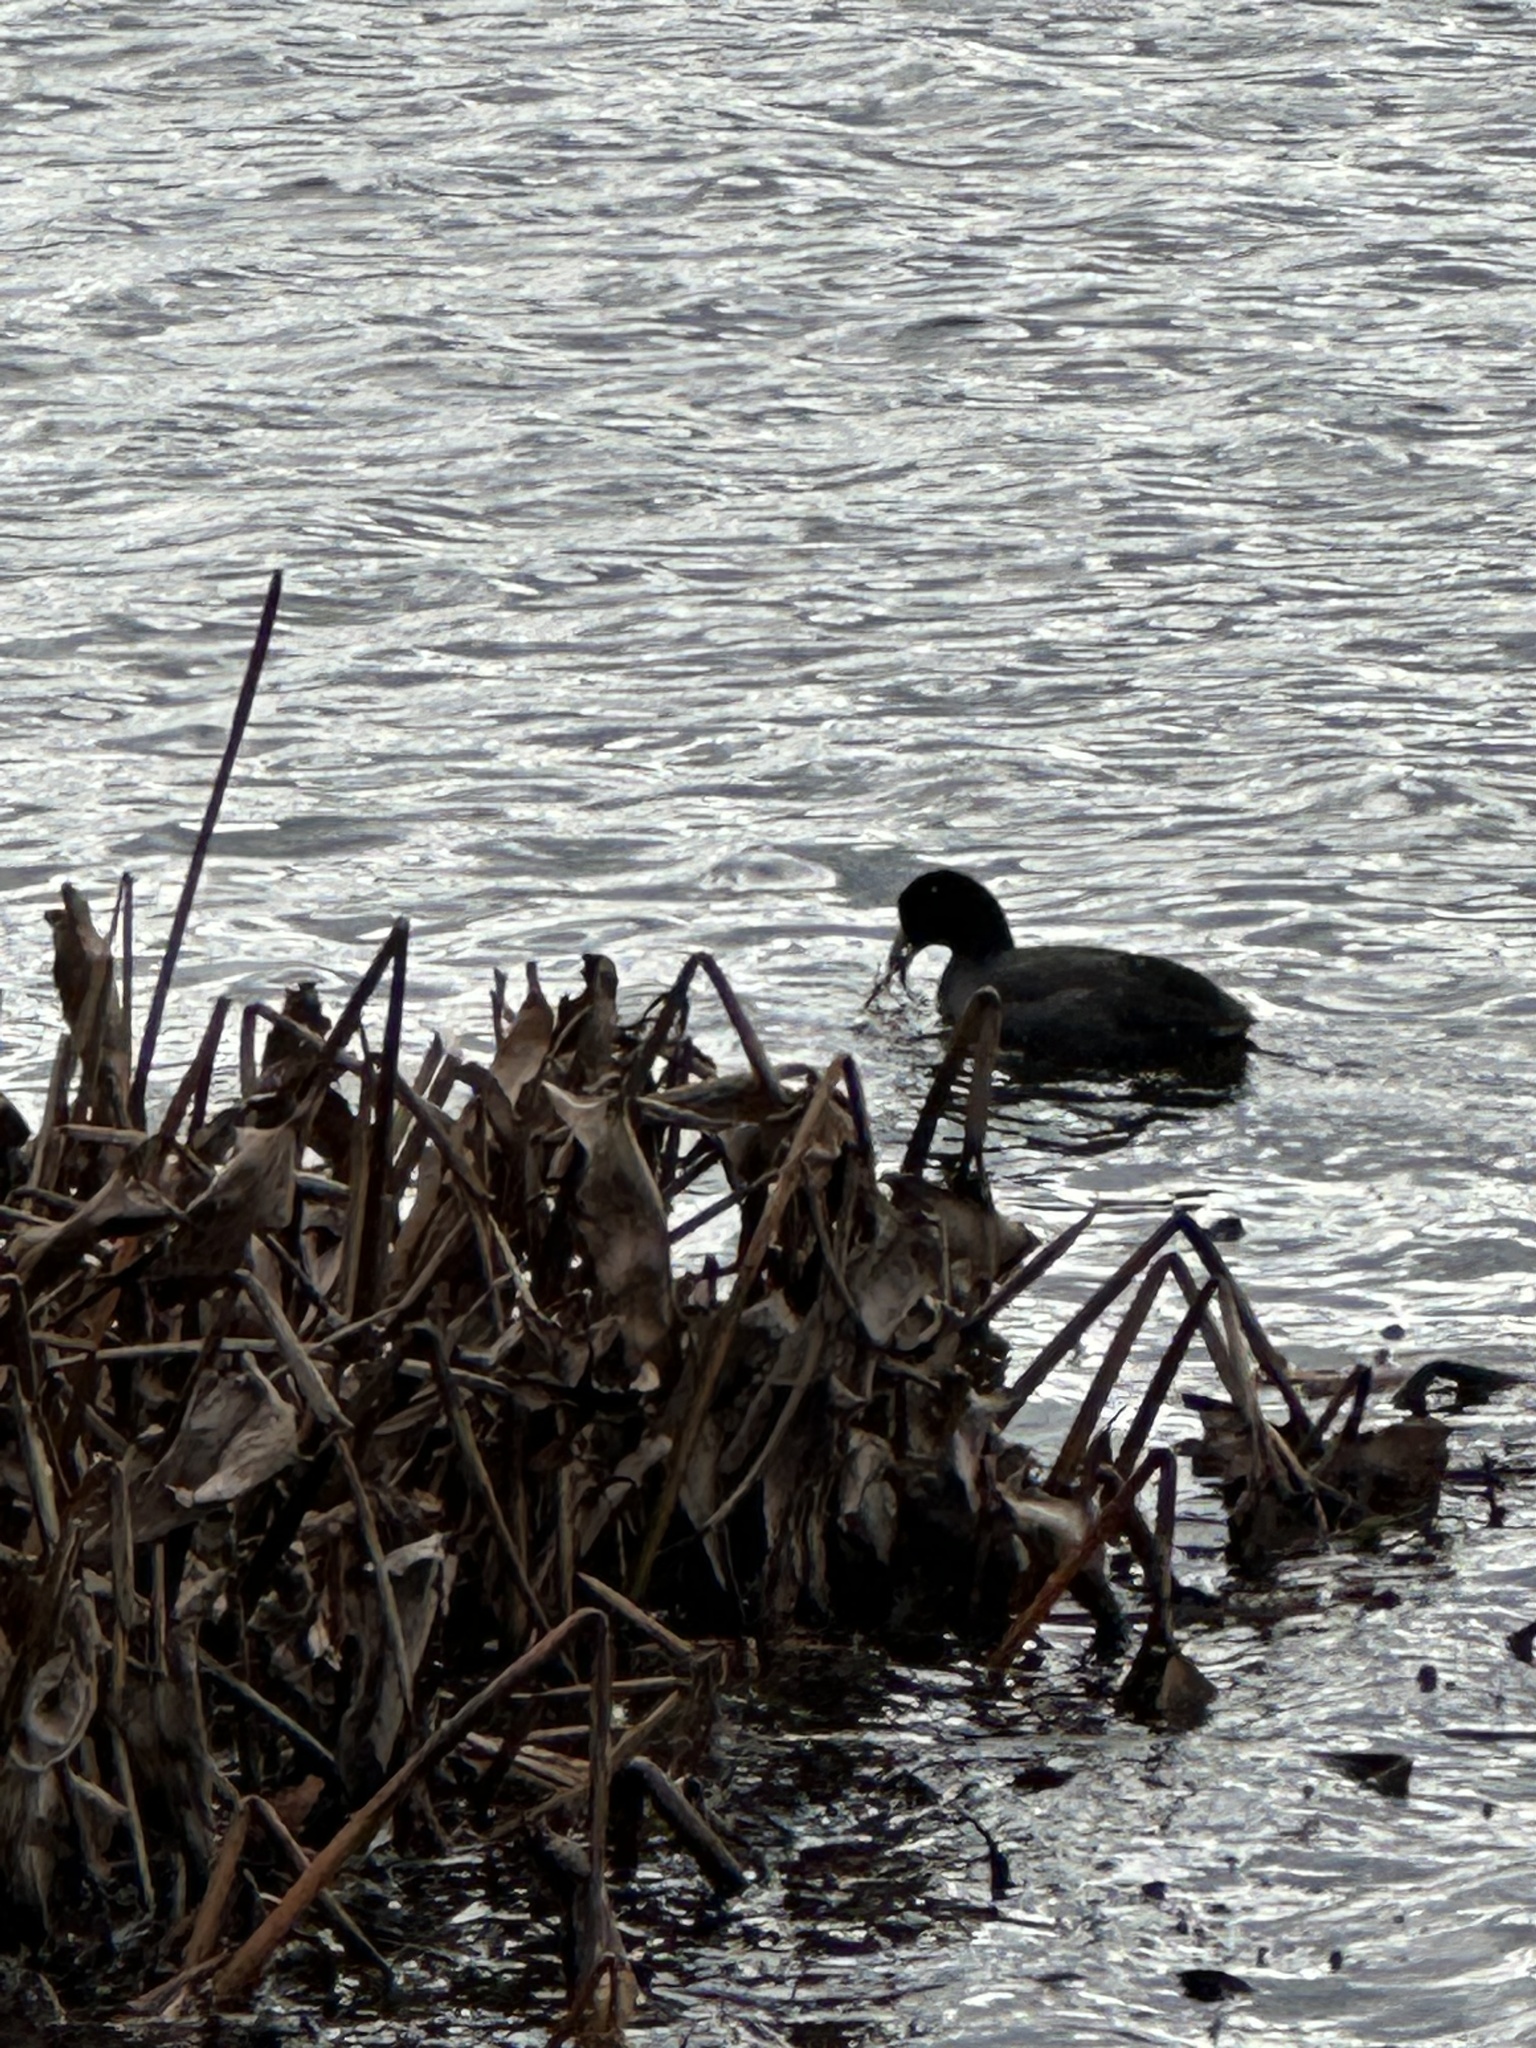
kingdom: Animalia
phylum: Chordata
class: Aves
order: Gruiformes
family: Rallidae
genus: Fulica
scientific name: Fulica americana
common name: American coot
